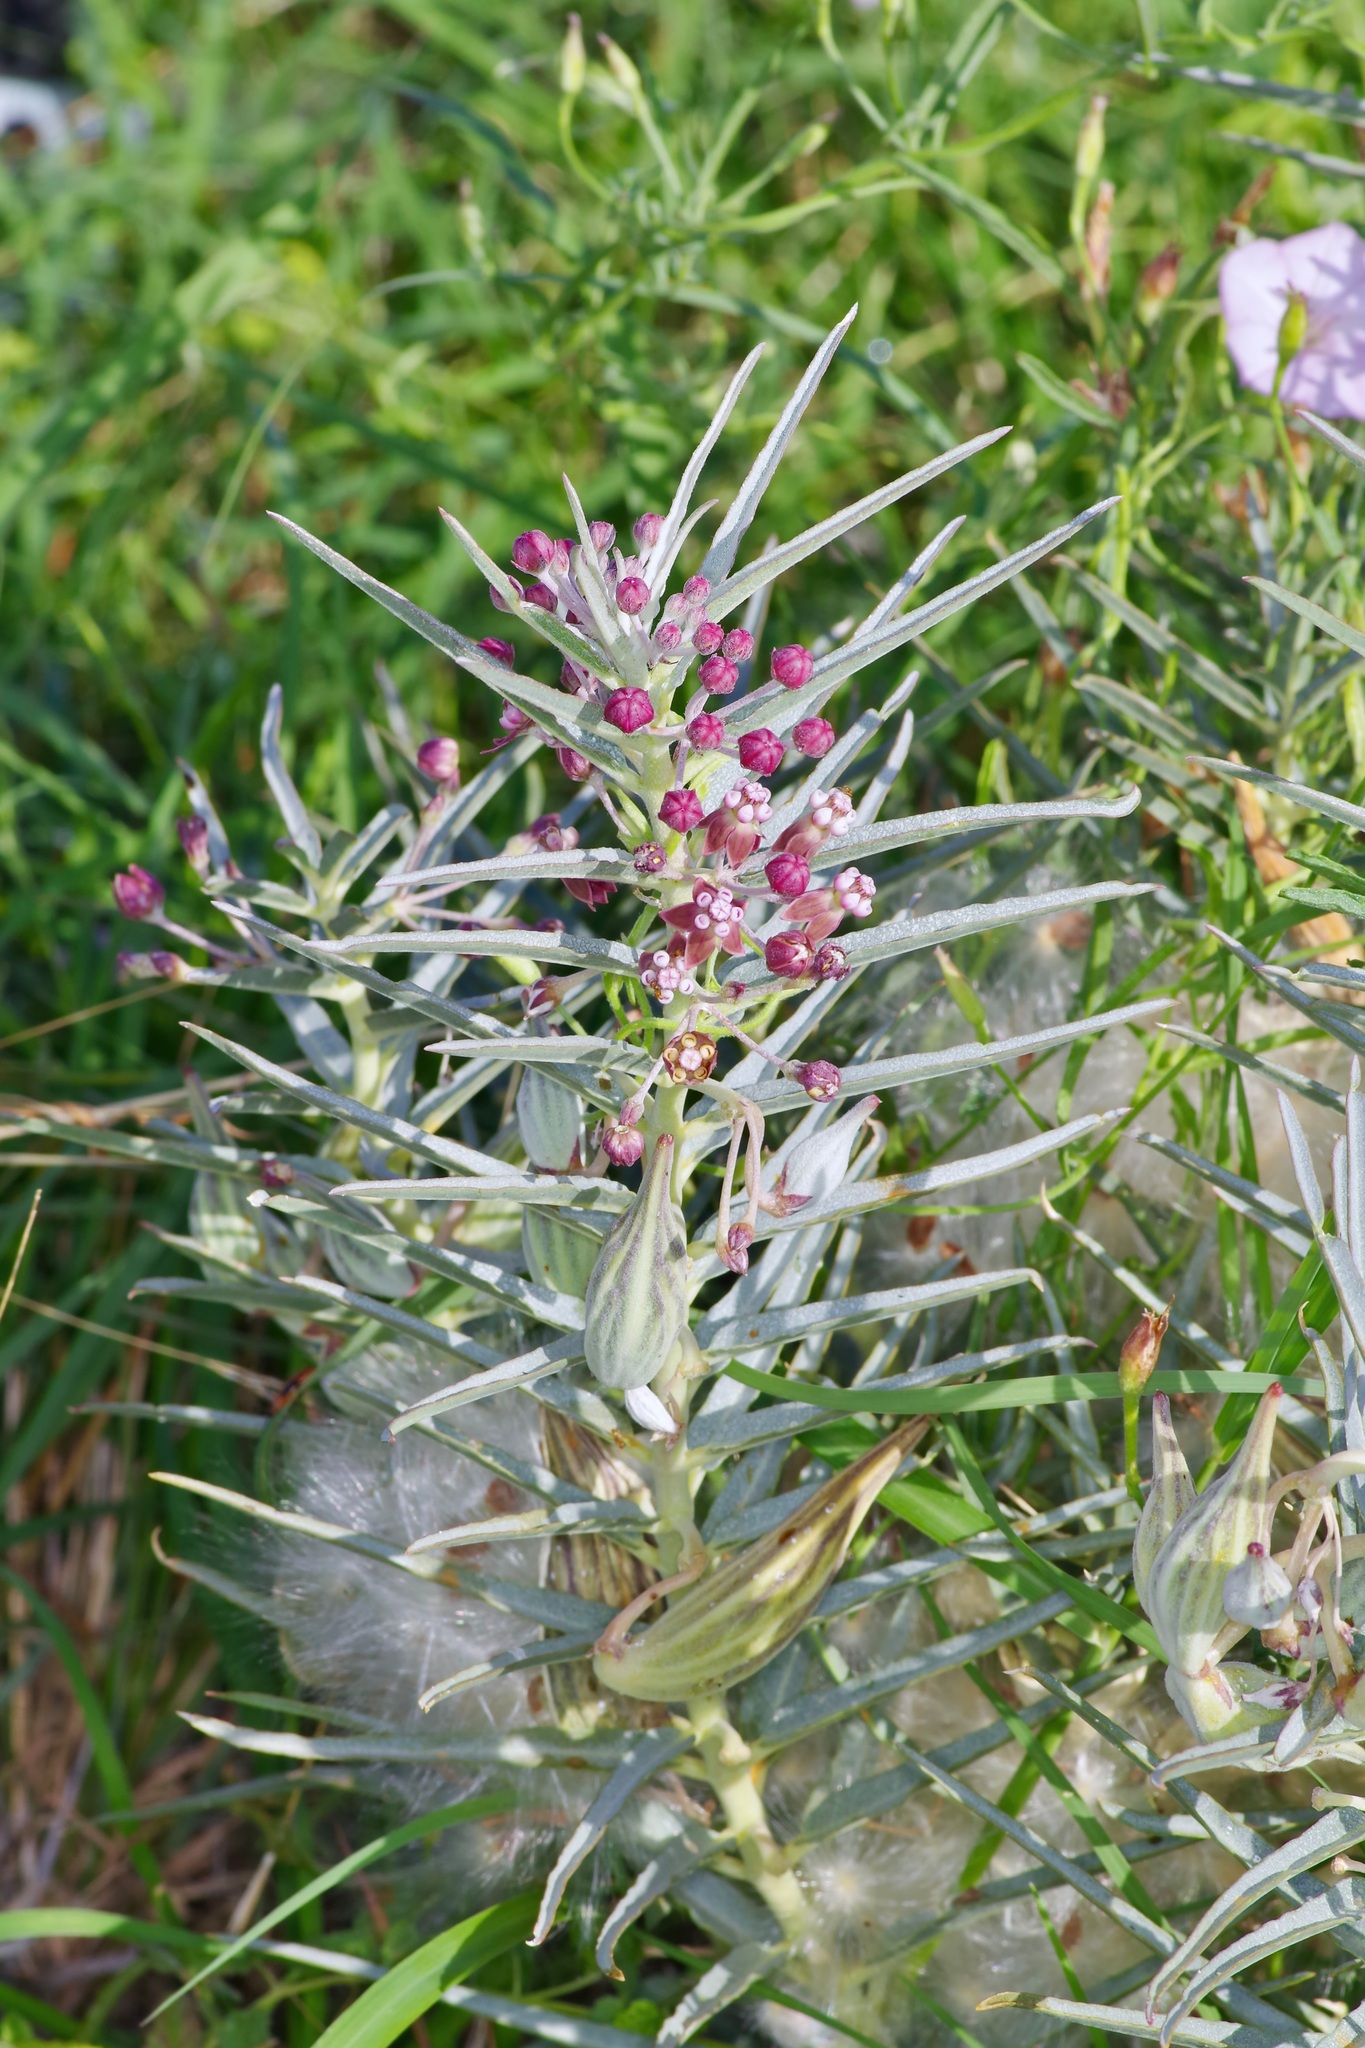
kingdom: Plantae
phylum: Tracheophyta
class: Magnoliopsida
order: Gentianales
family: Apocynaceae
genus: Asclepias
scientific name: Asclepias brachystephana
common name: Shortcrown milkweed
